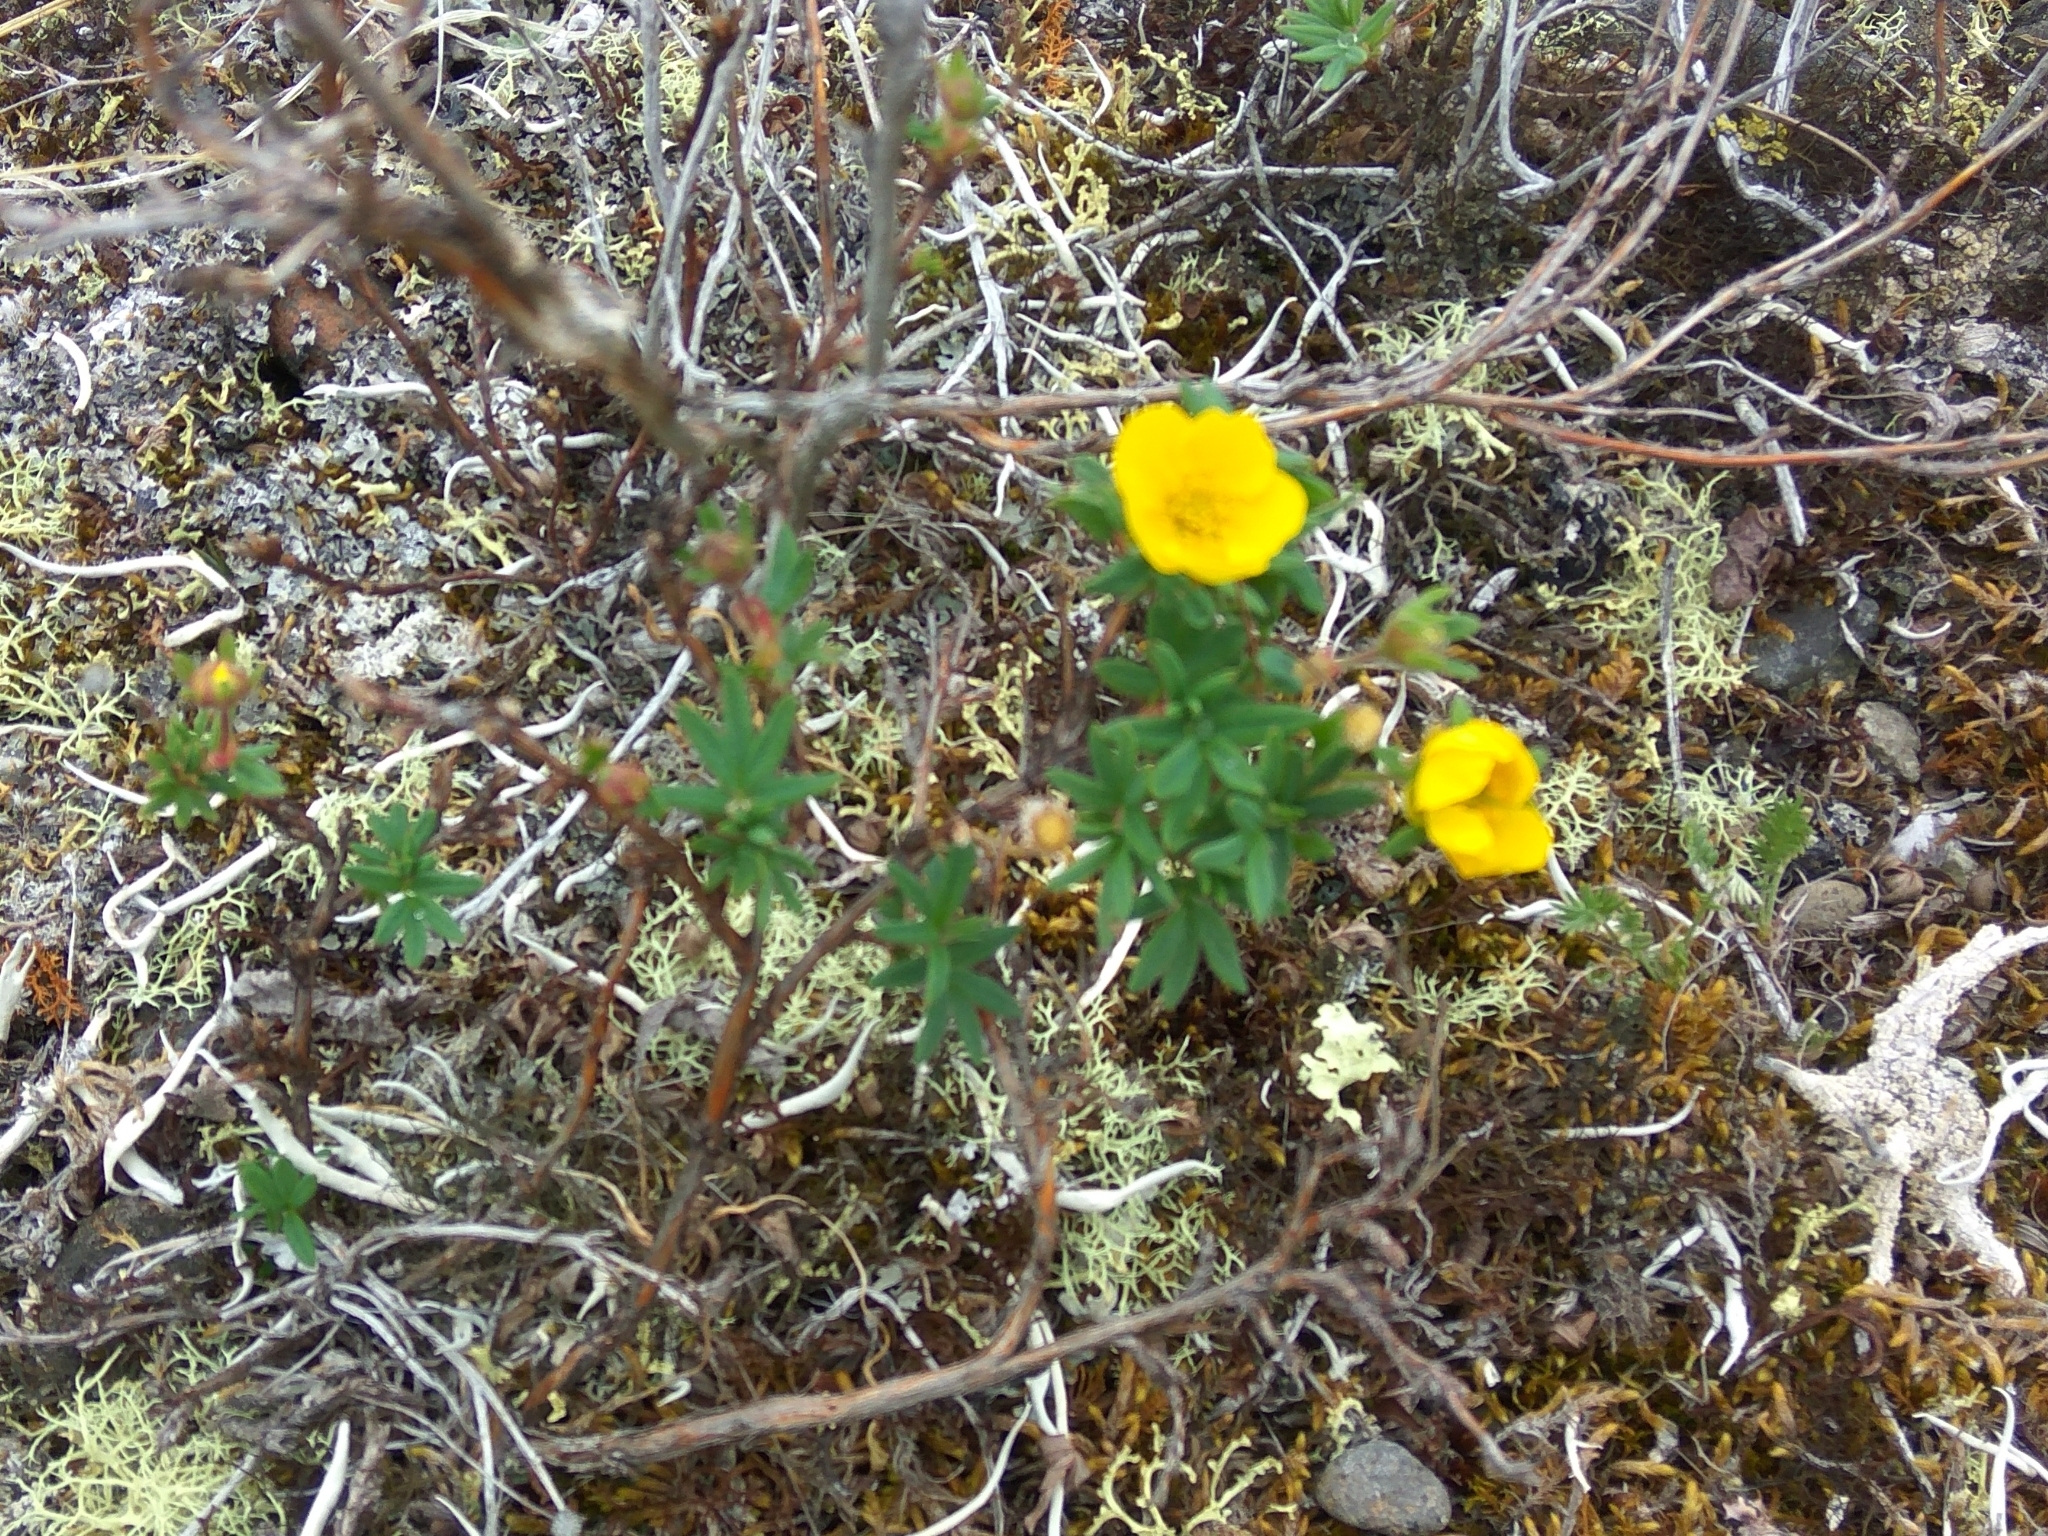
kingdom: Plantae
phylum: Tracheophyta
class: Magnoliopsida
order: Rosales
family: Rosaceae
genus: Dasiphora
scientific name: Dasiphora fruticosa
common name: Shrubby cinquefoil
